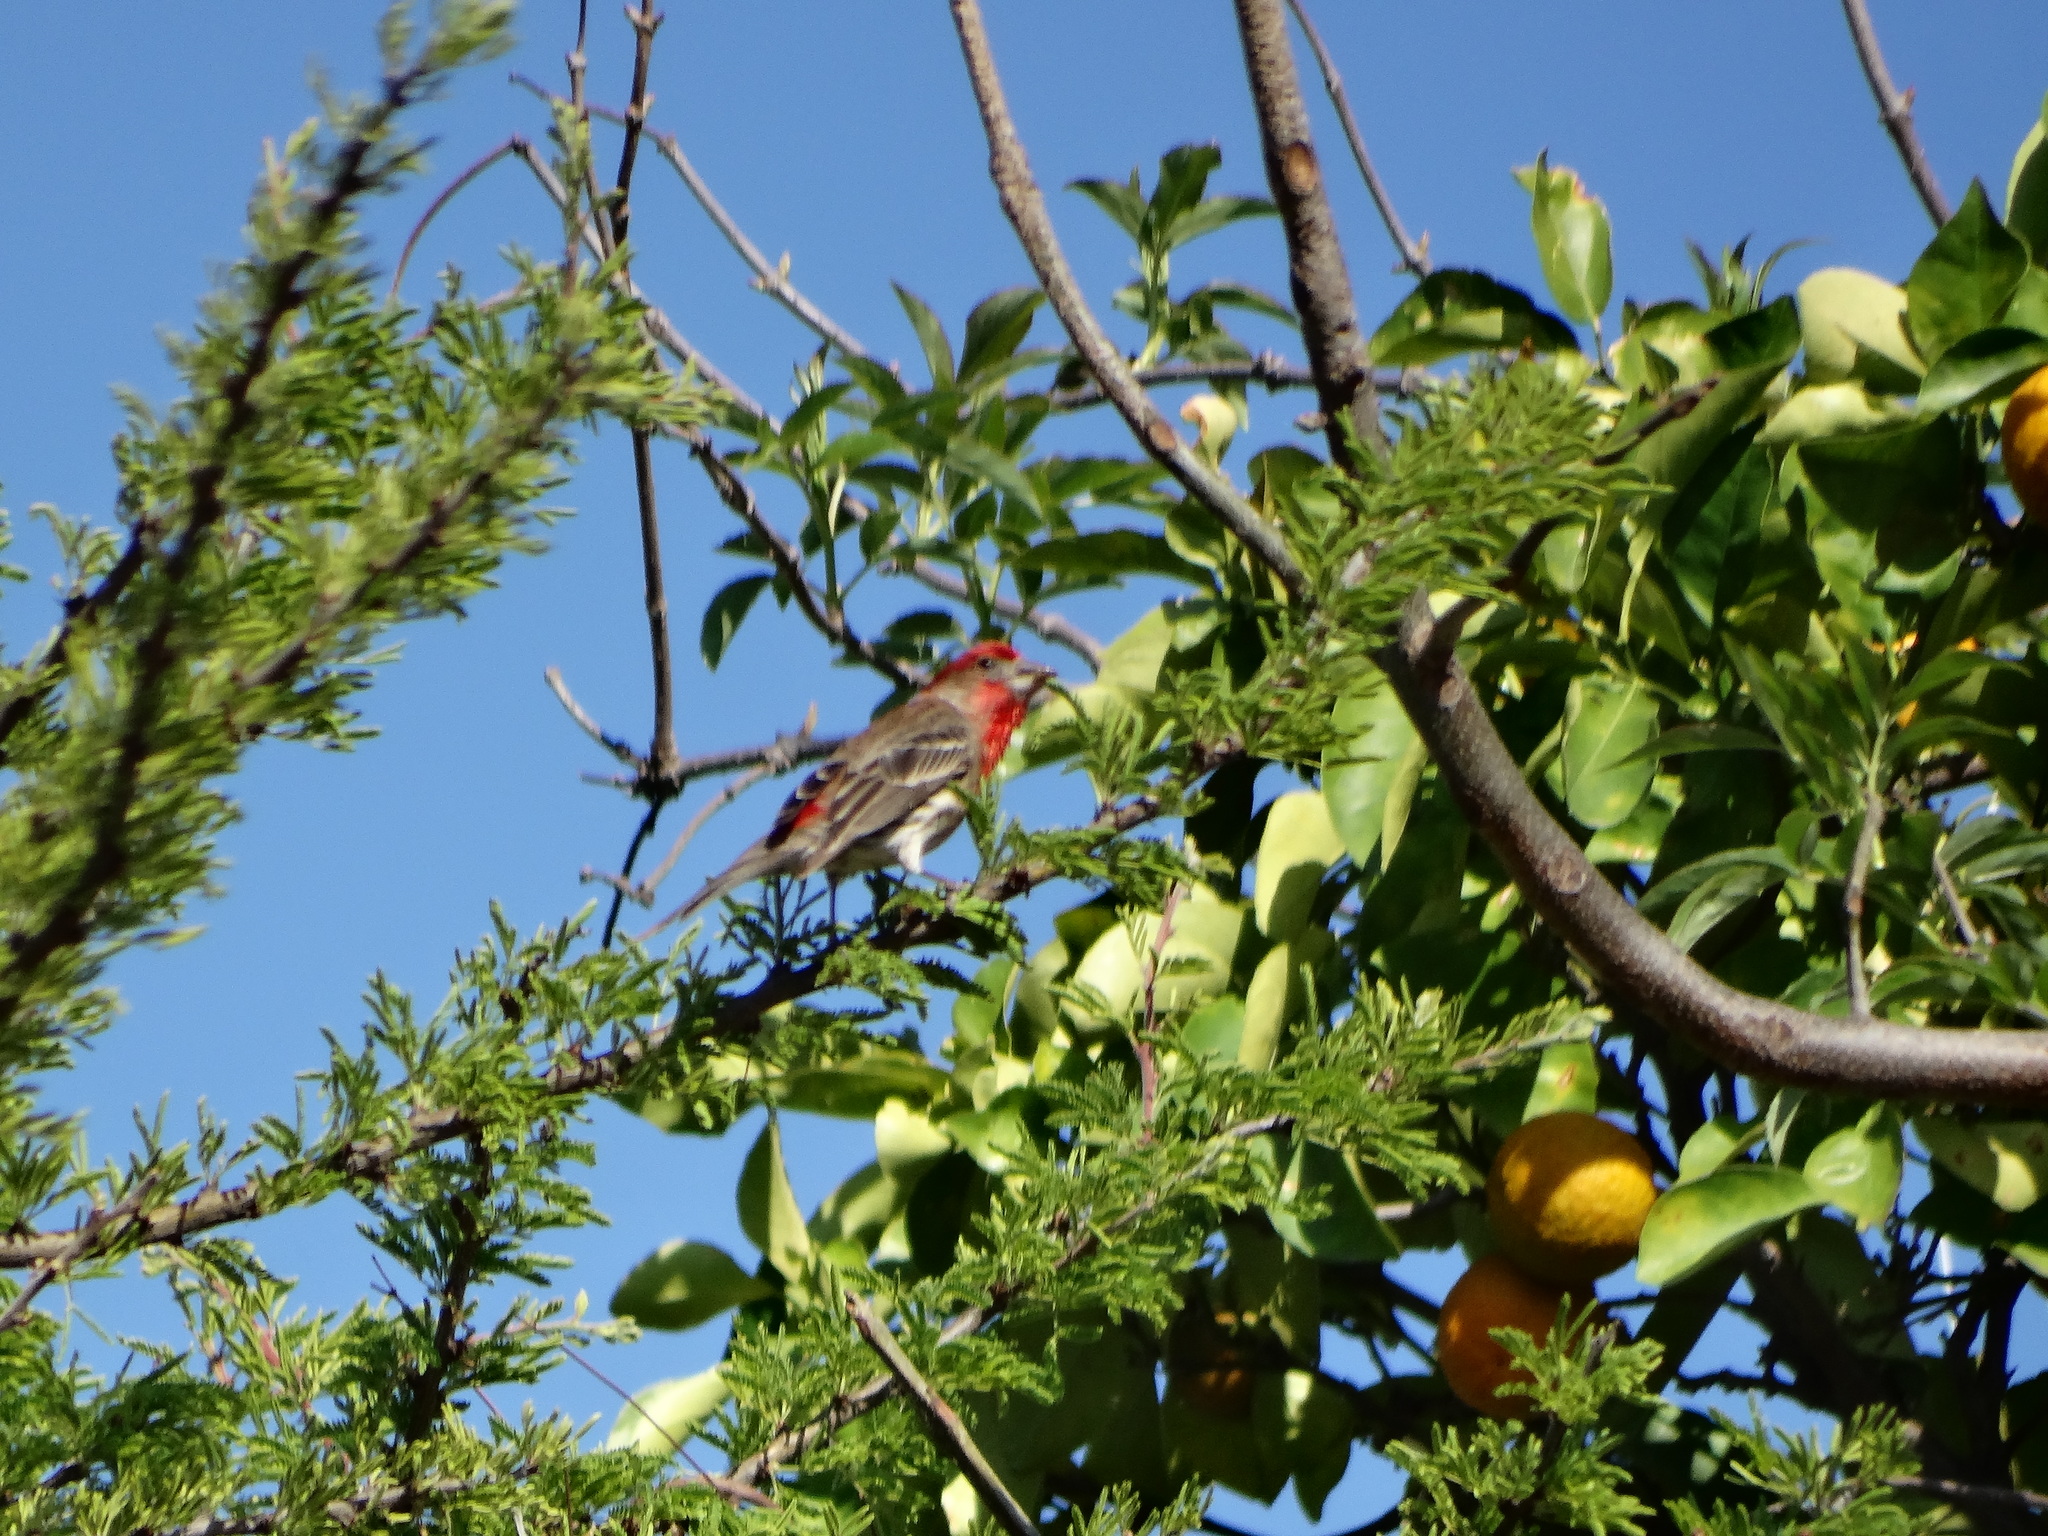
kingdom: Animalia
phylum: Chordata
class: Aves
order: Passeriformes
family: Fringillidae
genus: Haemorhous
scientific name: Haemorhous mexicanus
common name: House finch
